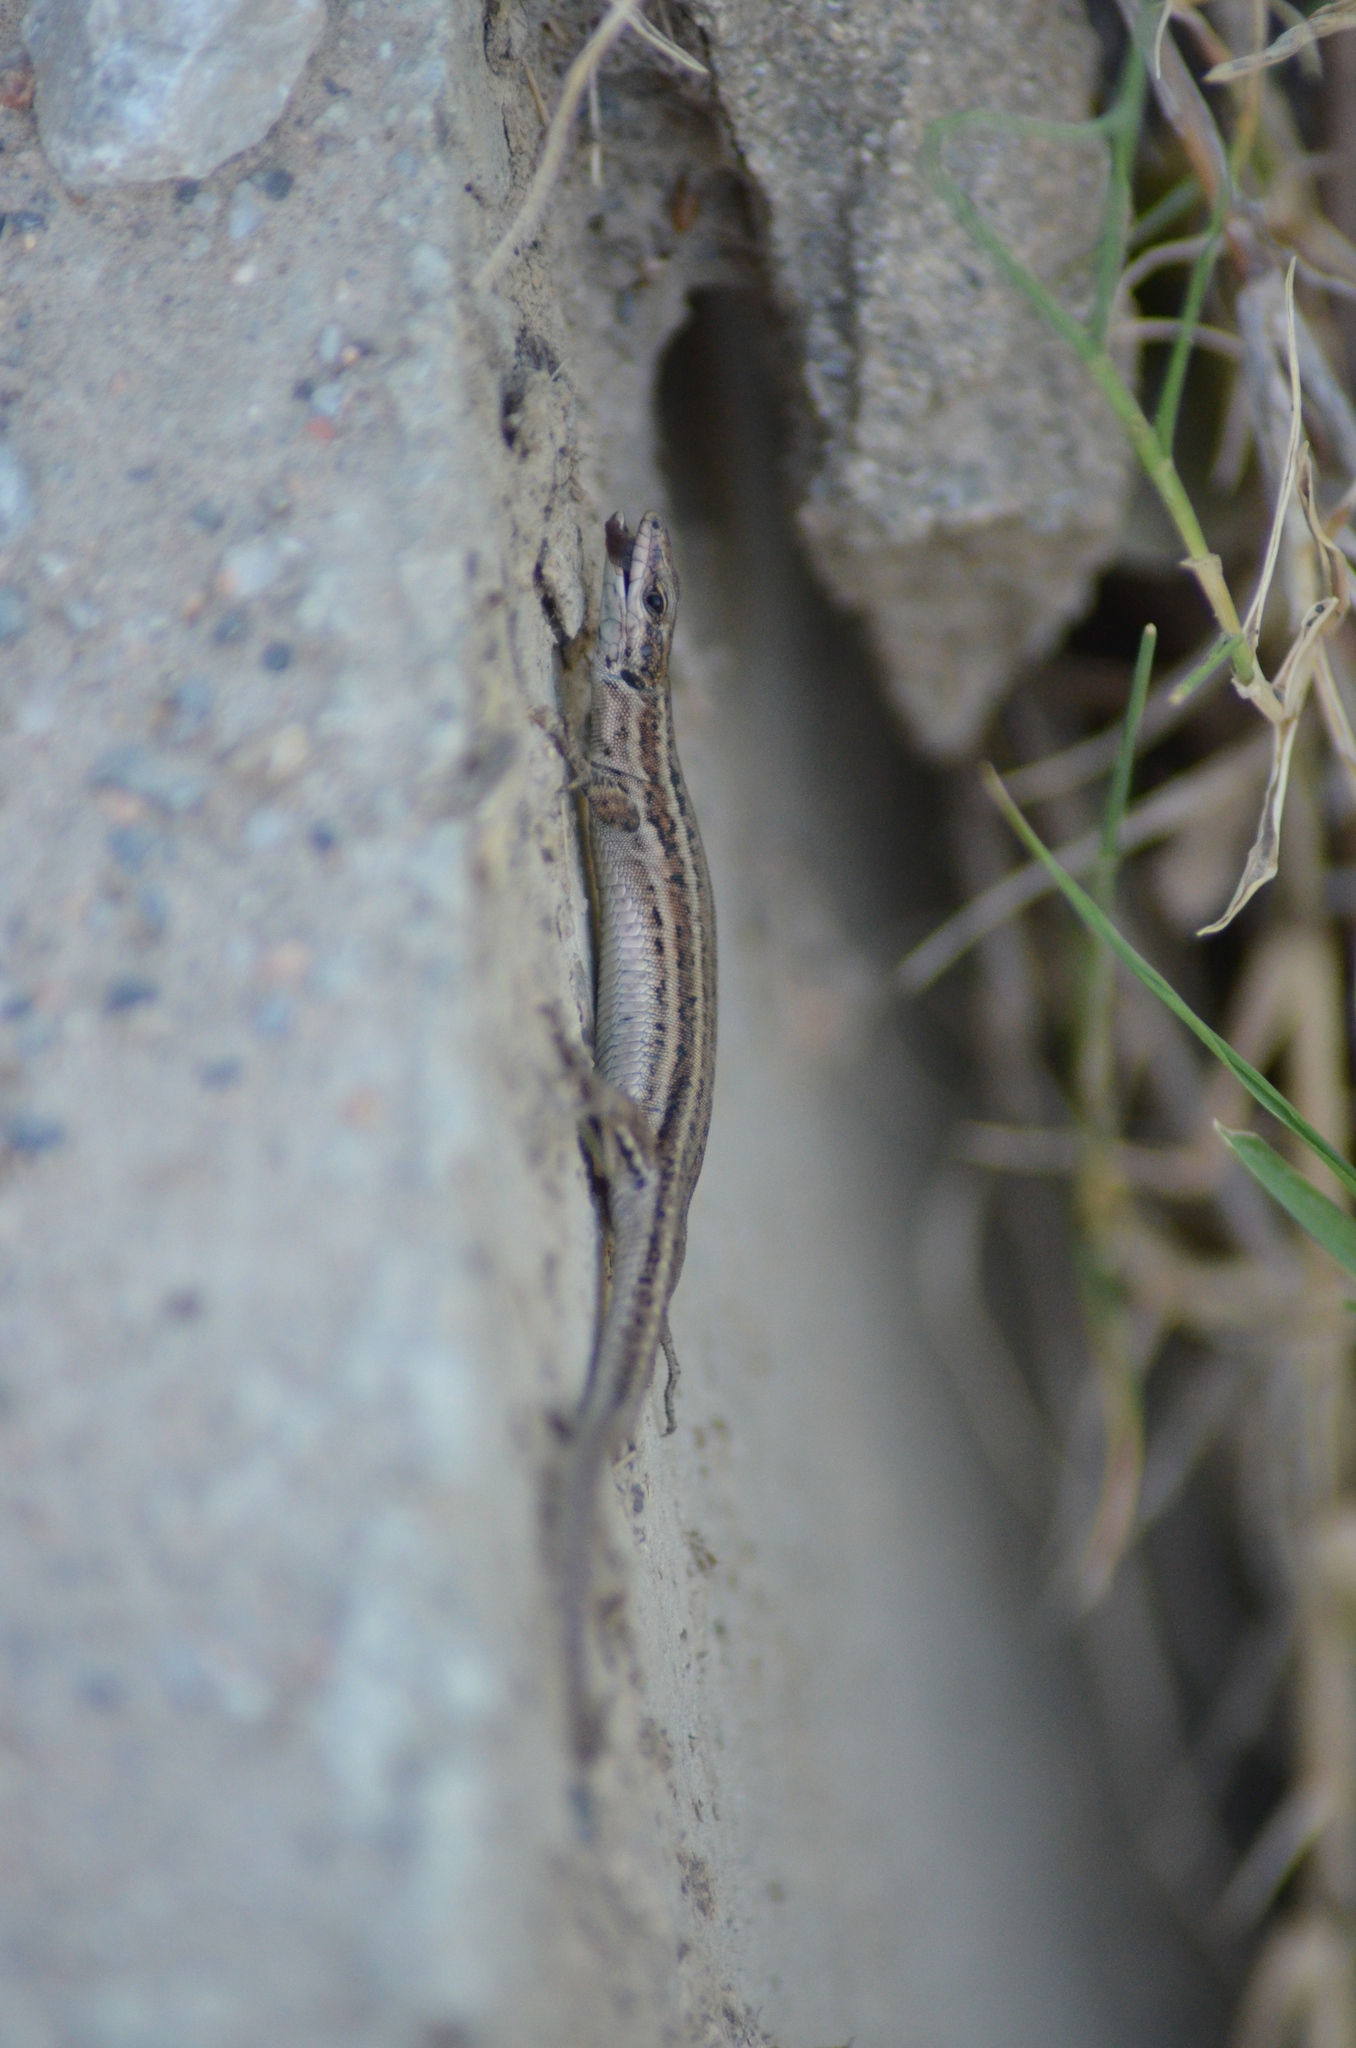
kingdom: Animalia
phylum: Chordata
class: Squamata
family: Lacertidae
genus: Podarcis
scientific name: Podarcis liolepis
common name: Catalonian wall lizard
